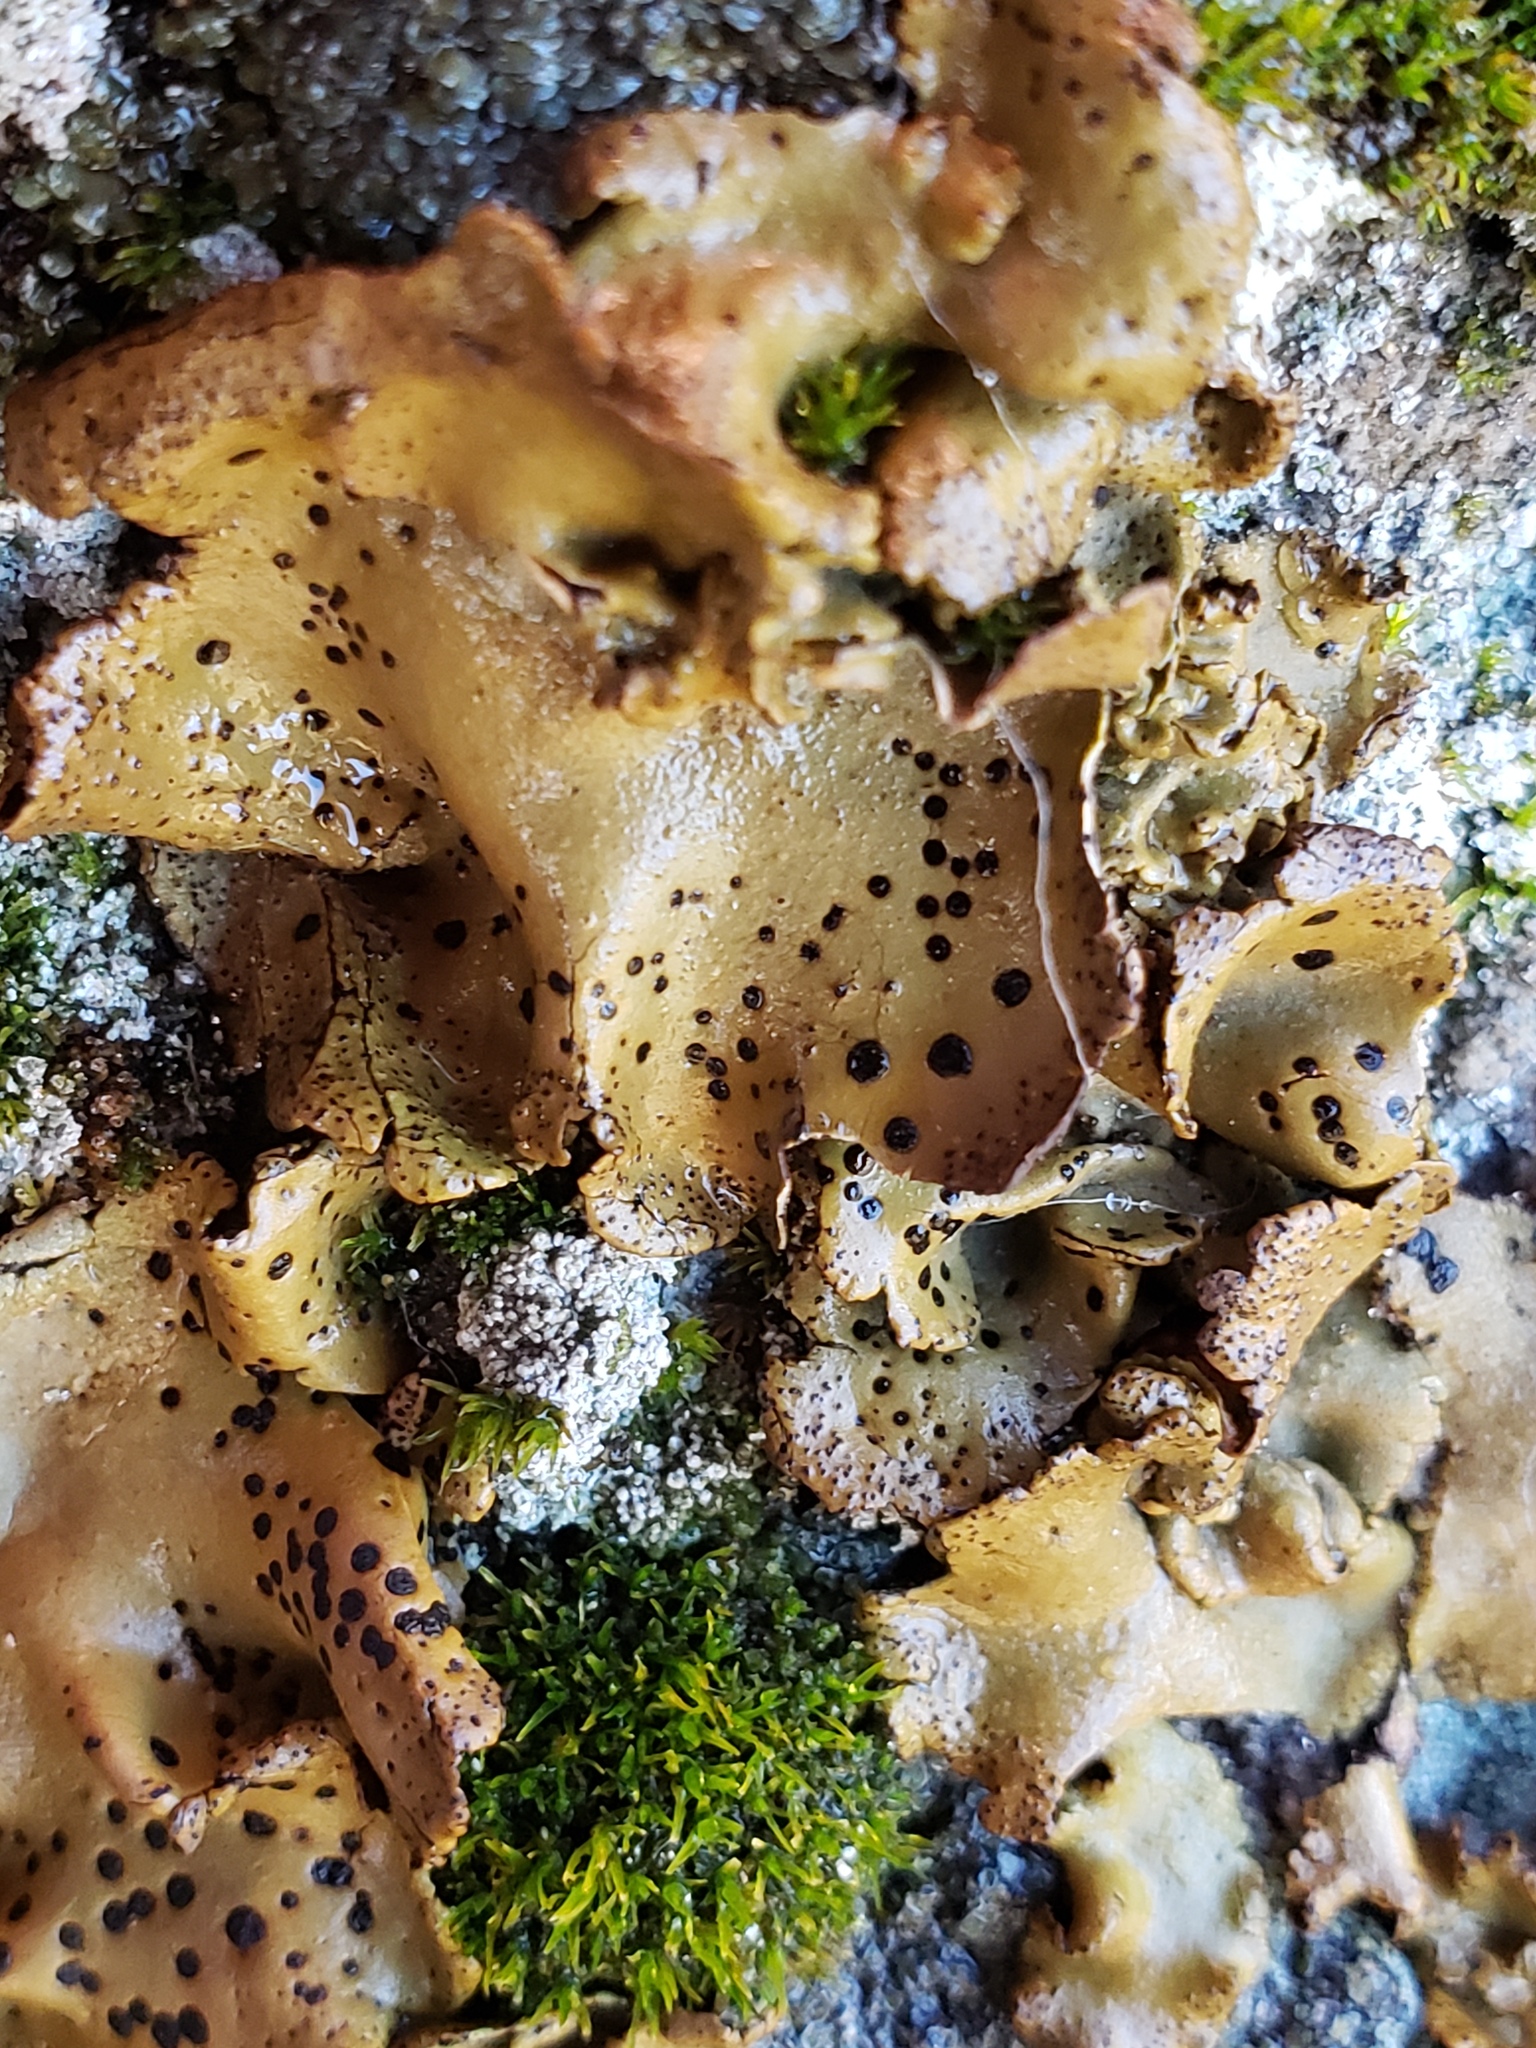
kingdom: Fungi
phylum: Ascomycota
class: Lecanoromycetes
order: Umbilicariales
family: Umbilicariaceae
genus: Umbilicaria
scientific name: Umbilicaria phaea
